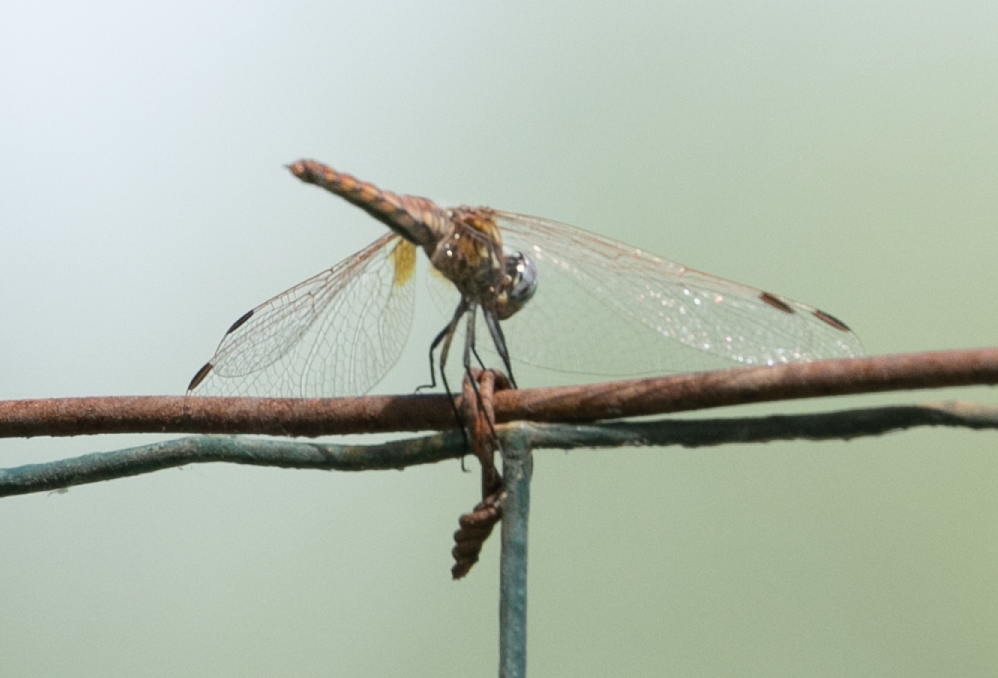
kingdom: Animalia
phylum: Arthropoda
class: Insecta
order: Odonata
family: Libellulidae
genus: Trithemis
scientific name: Trithemis annulata
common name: Violet dropwing
